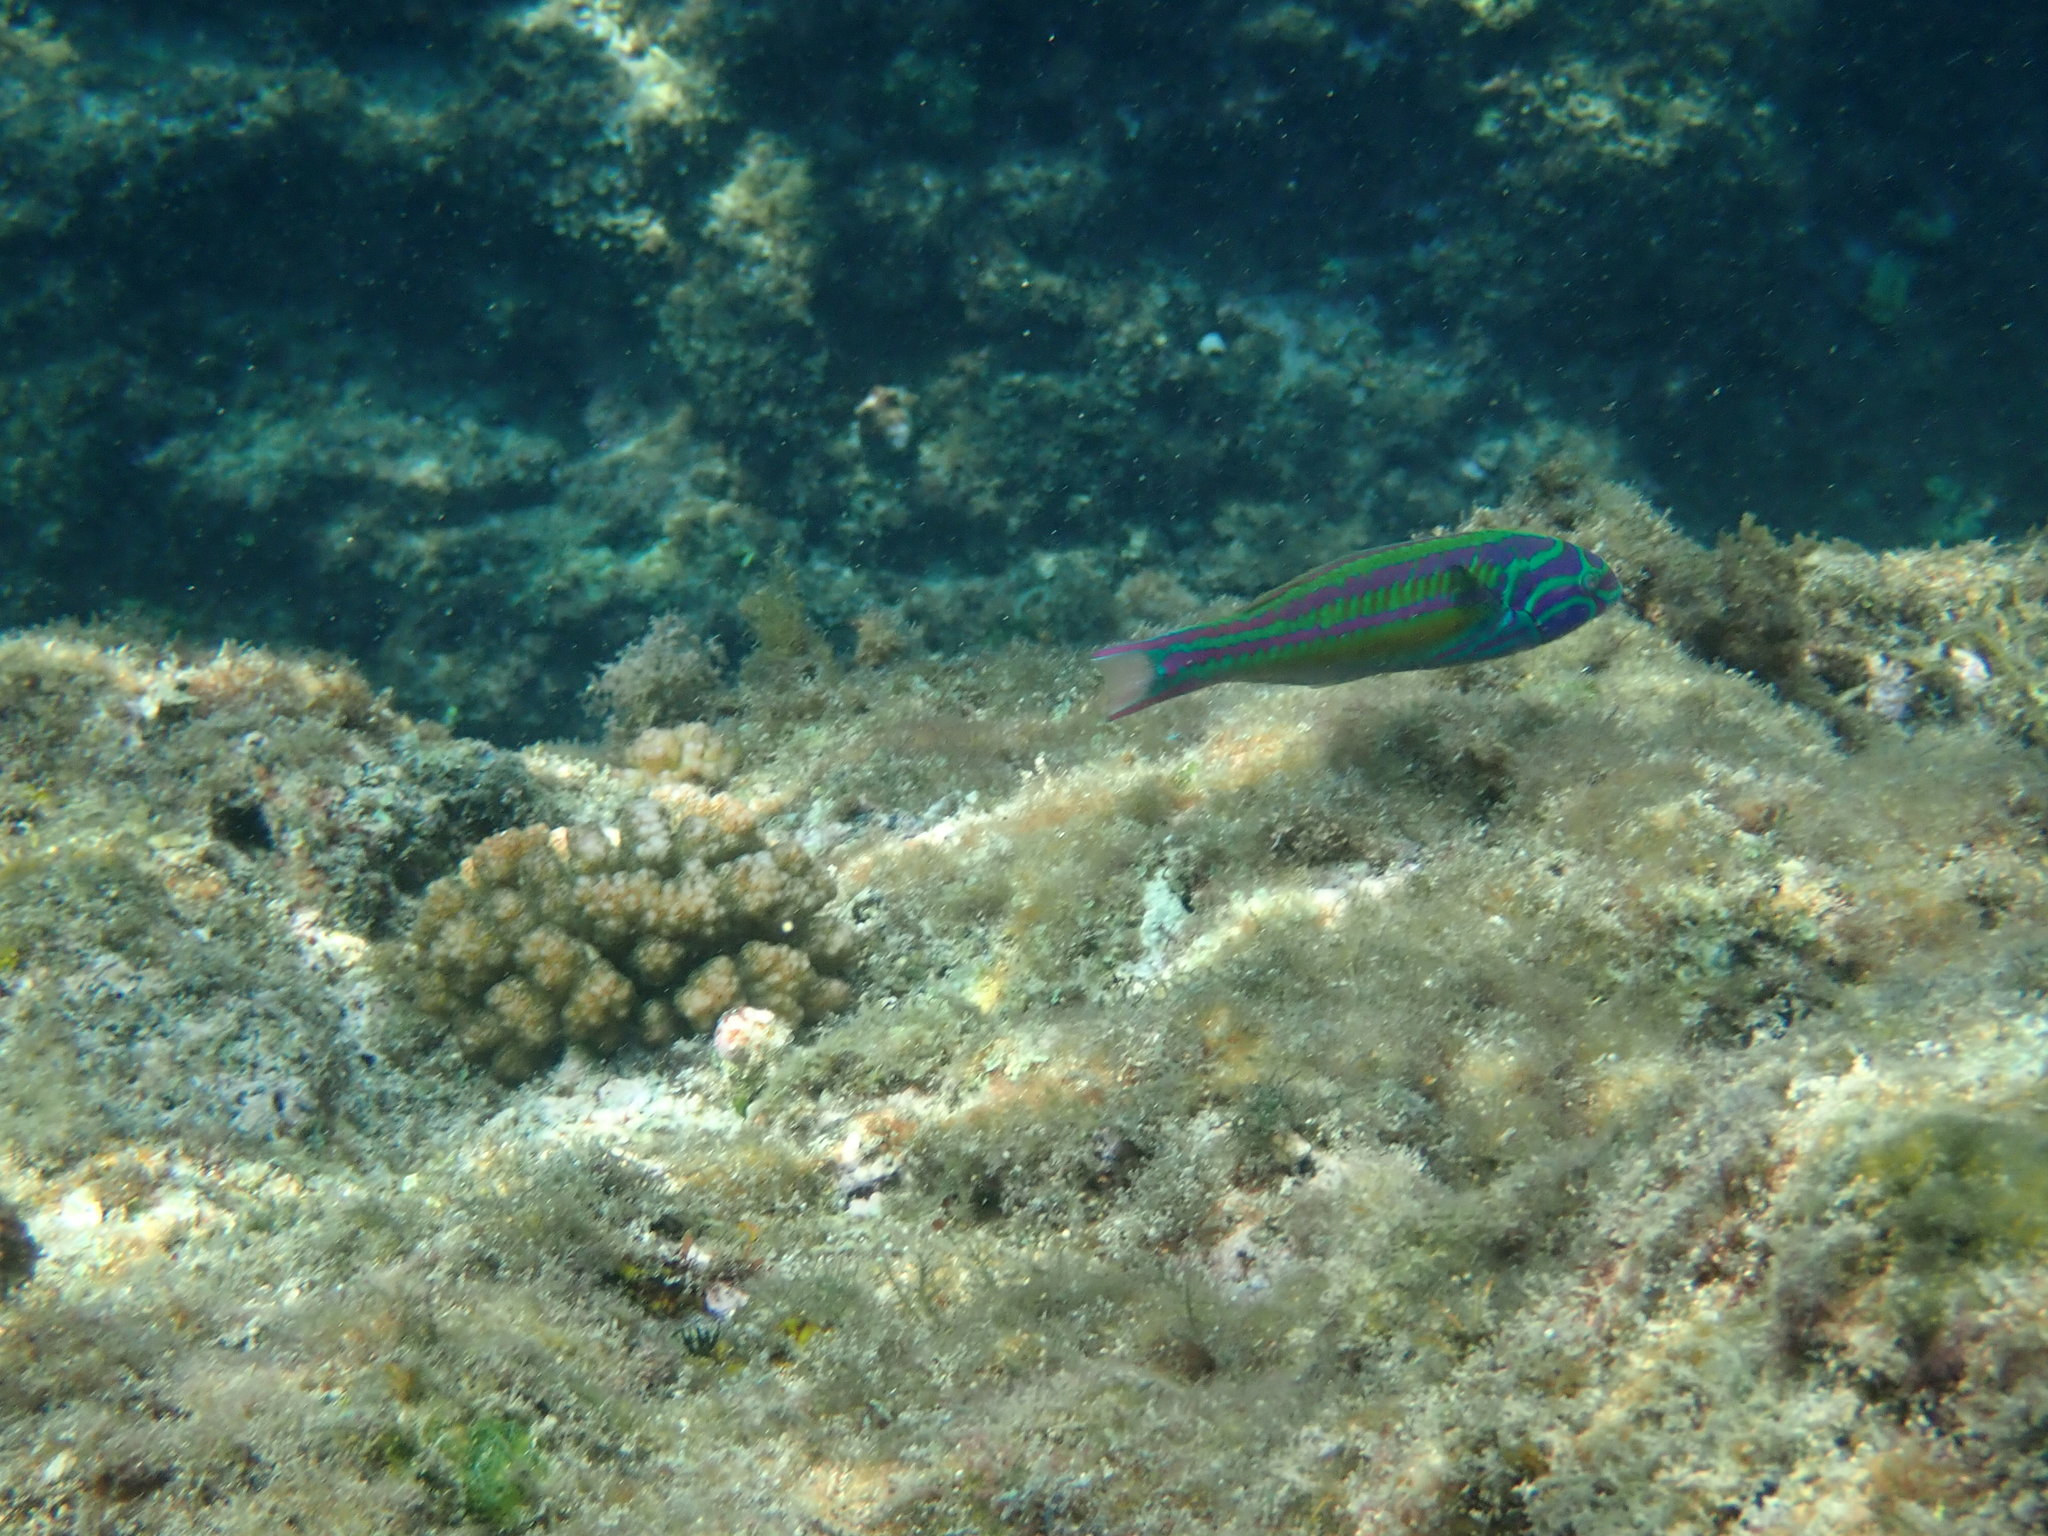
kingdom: Animalia
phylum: Chordata
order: Perciformes
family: Labridae
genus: Thalassoma
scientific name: Thalassoma quinquevittatum
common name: Five striped surge wrasse
